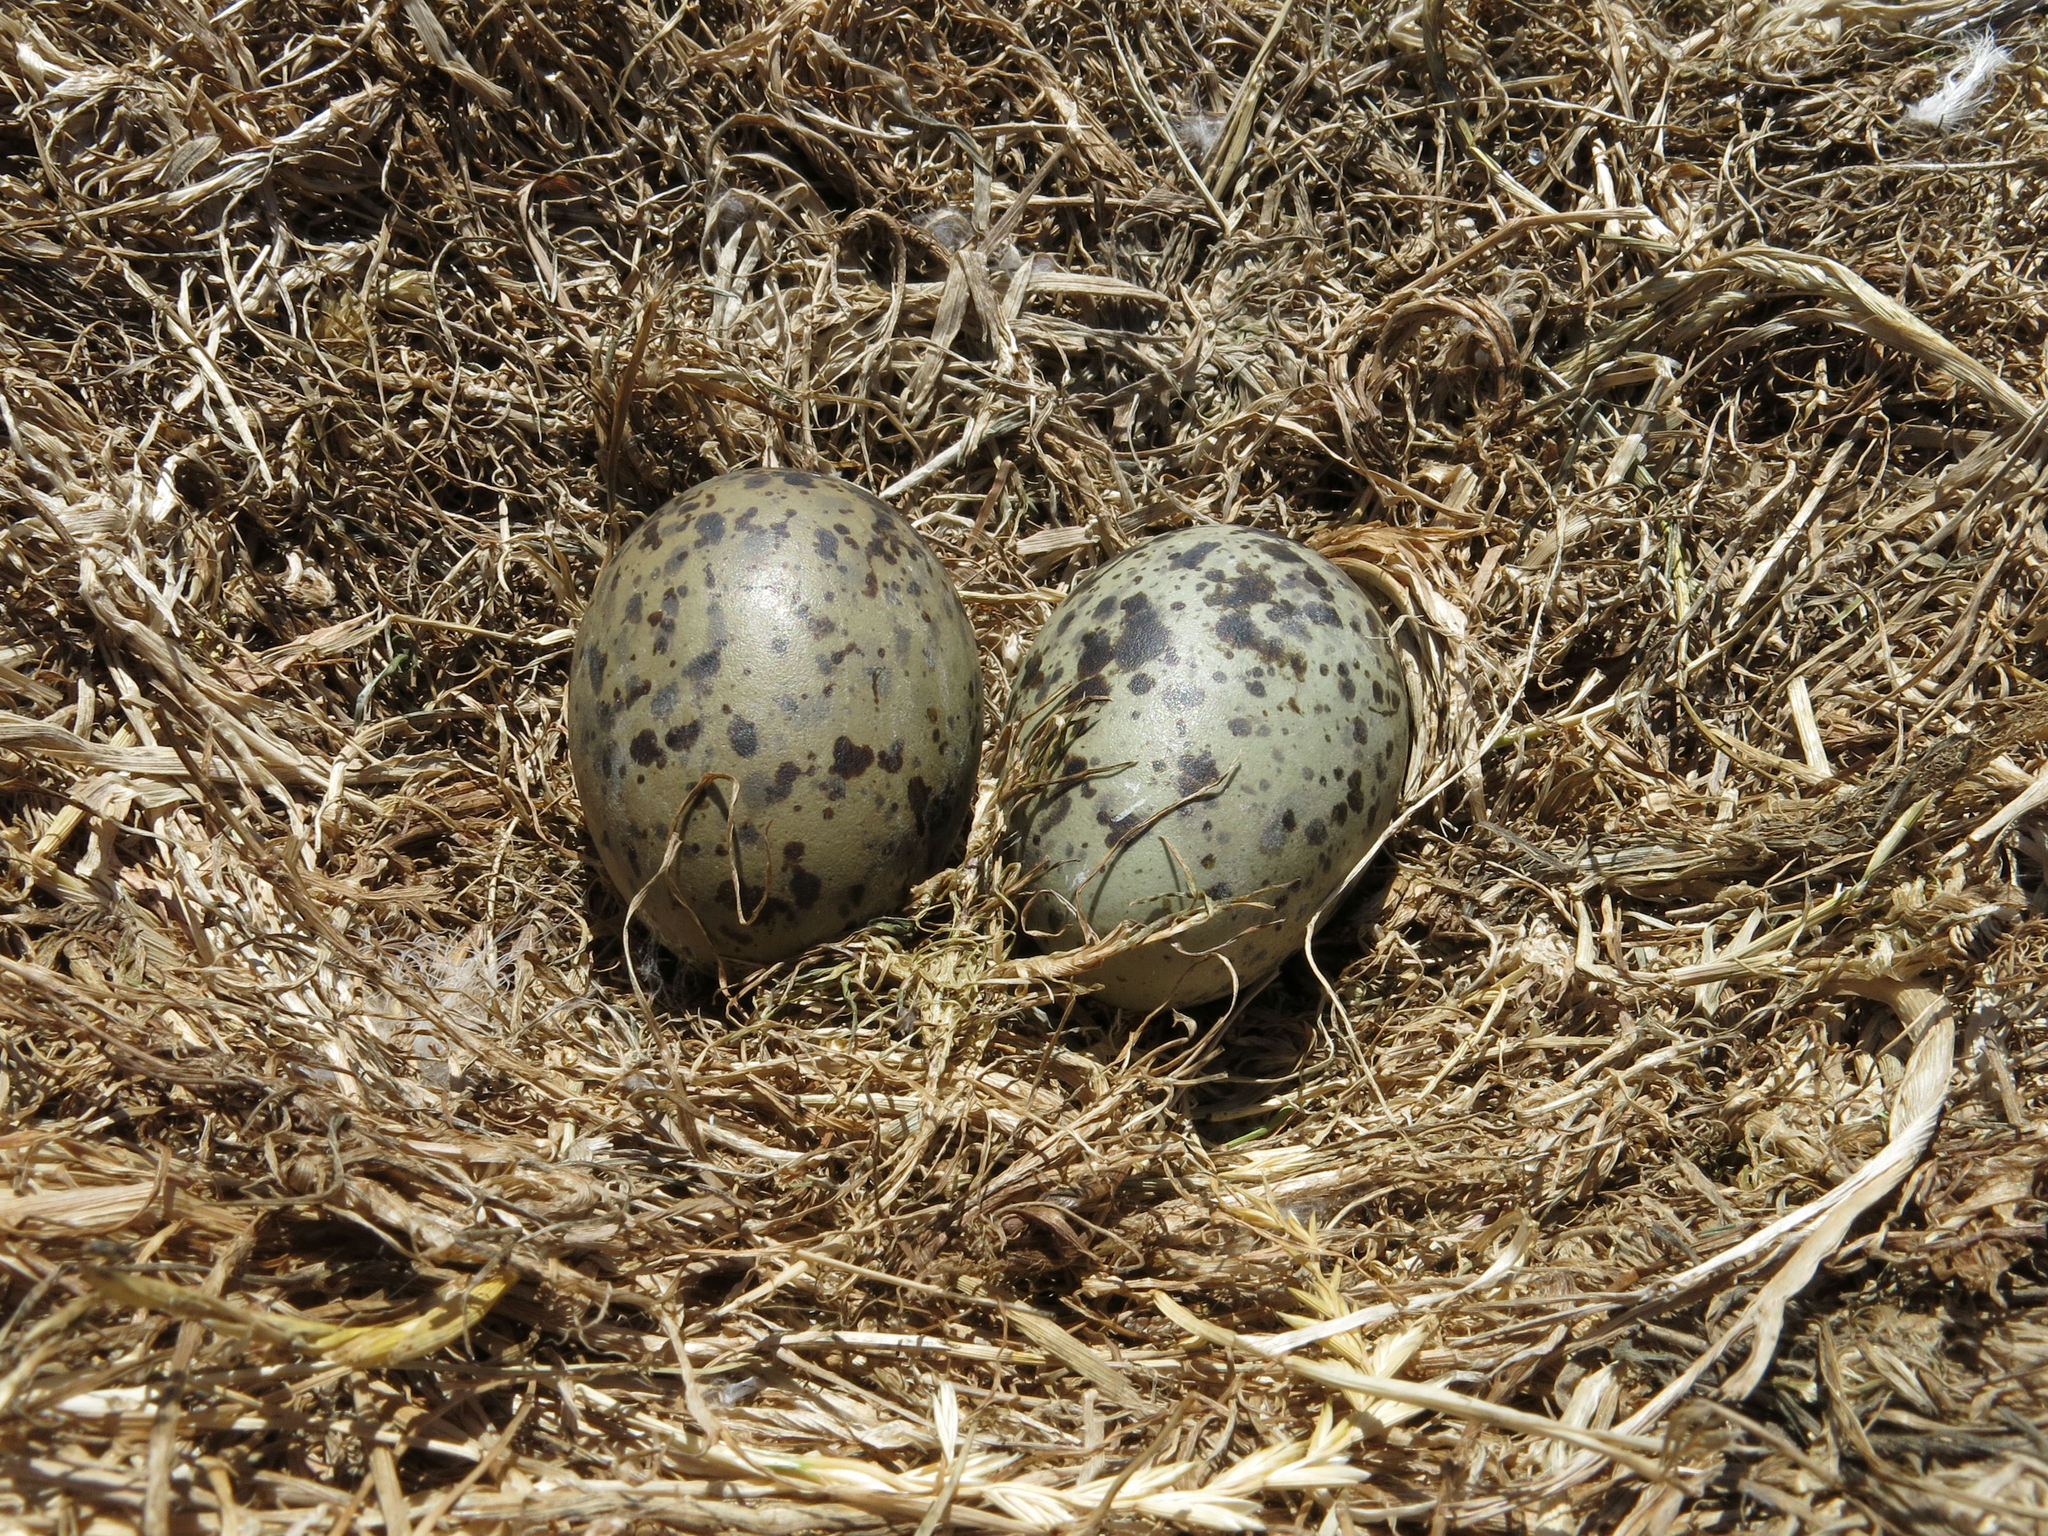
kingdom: Animalia
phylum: Chordata
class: Aves
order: Charadriiformes
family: Laridae
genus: Larus
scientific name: Larus dominicanus
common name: Kelp gull
